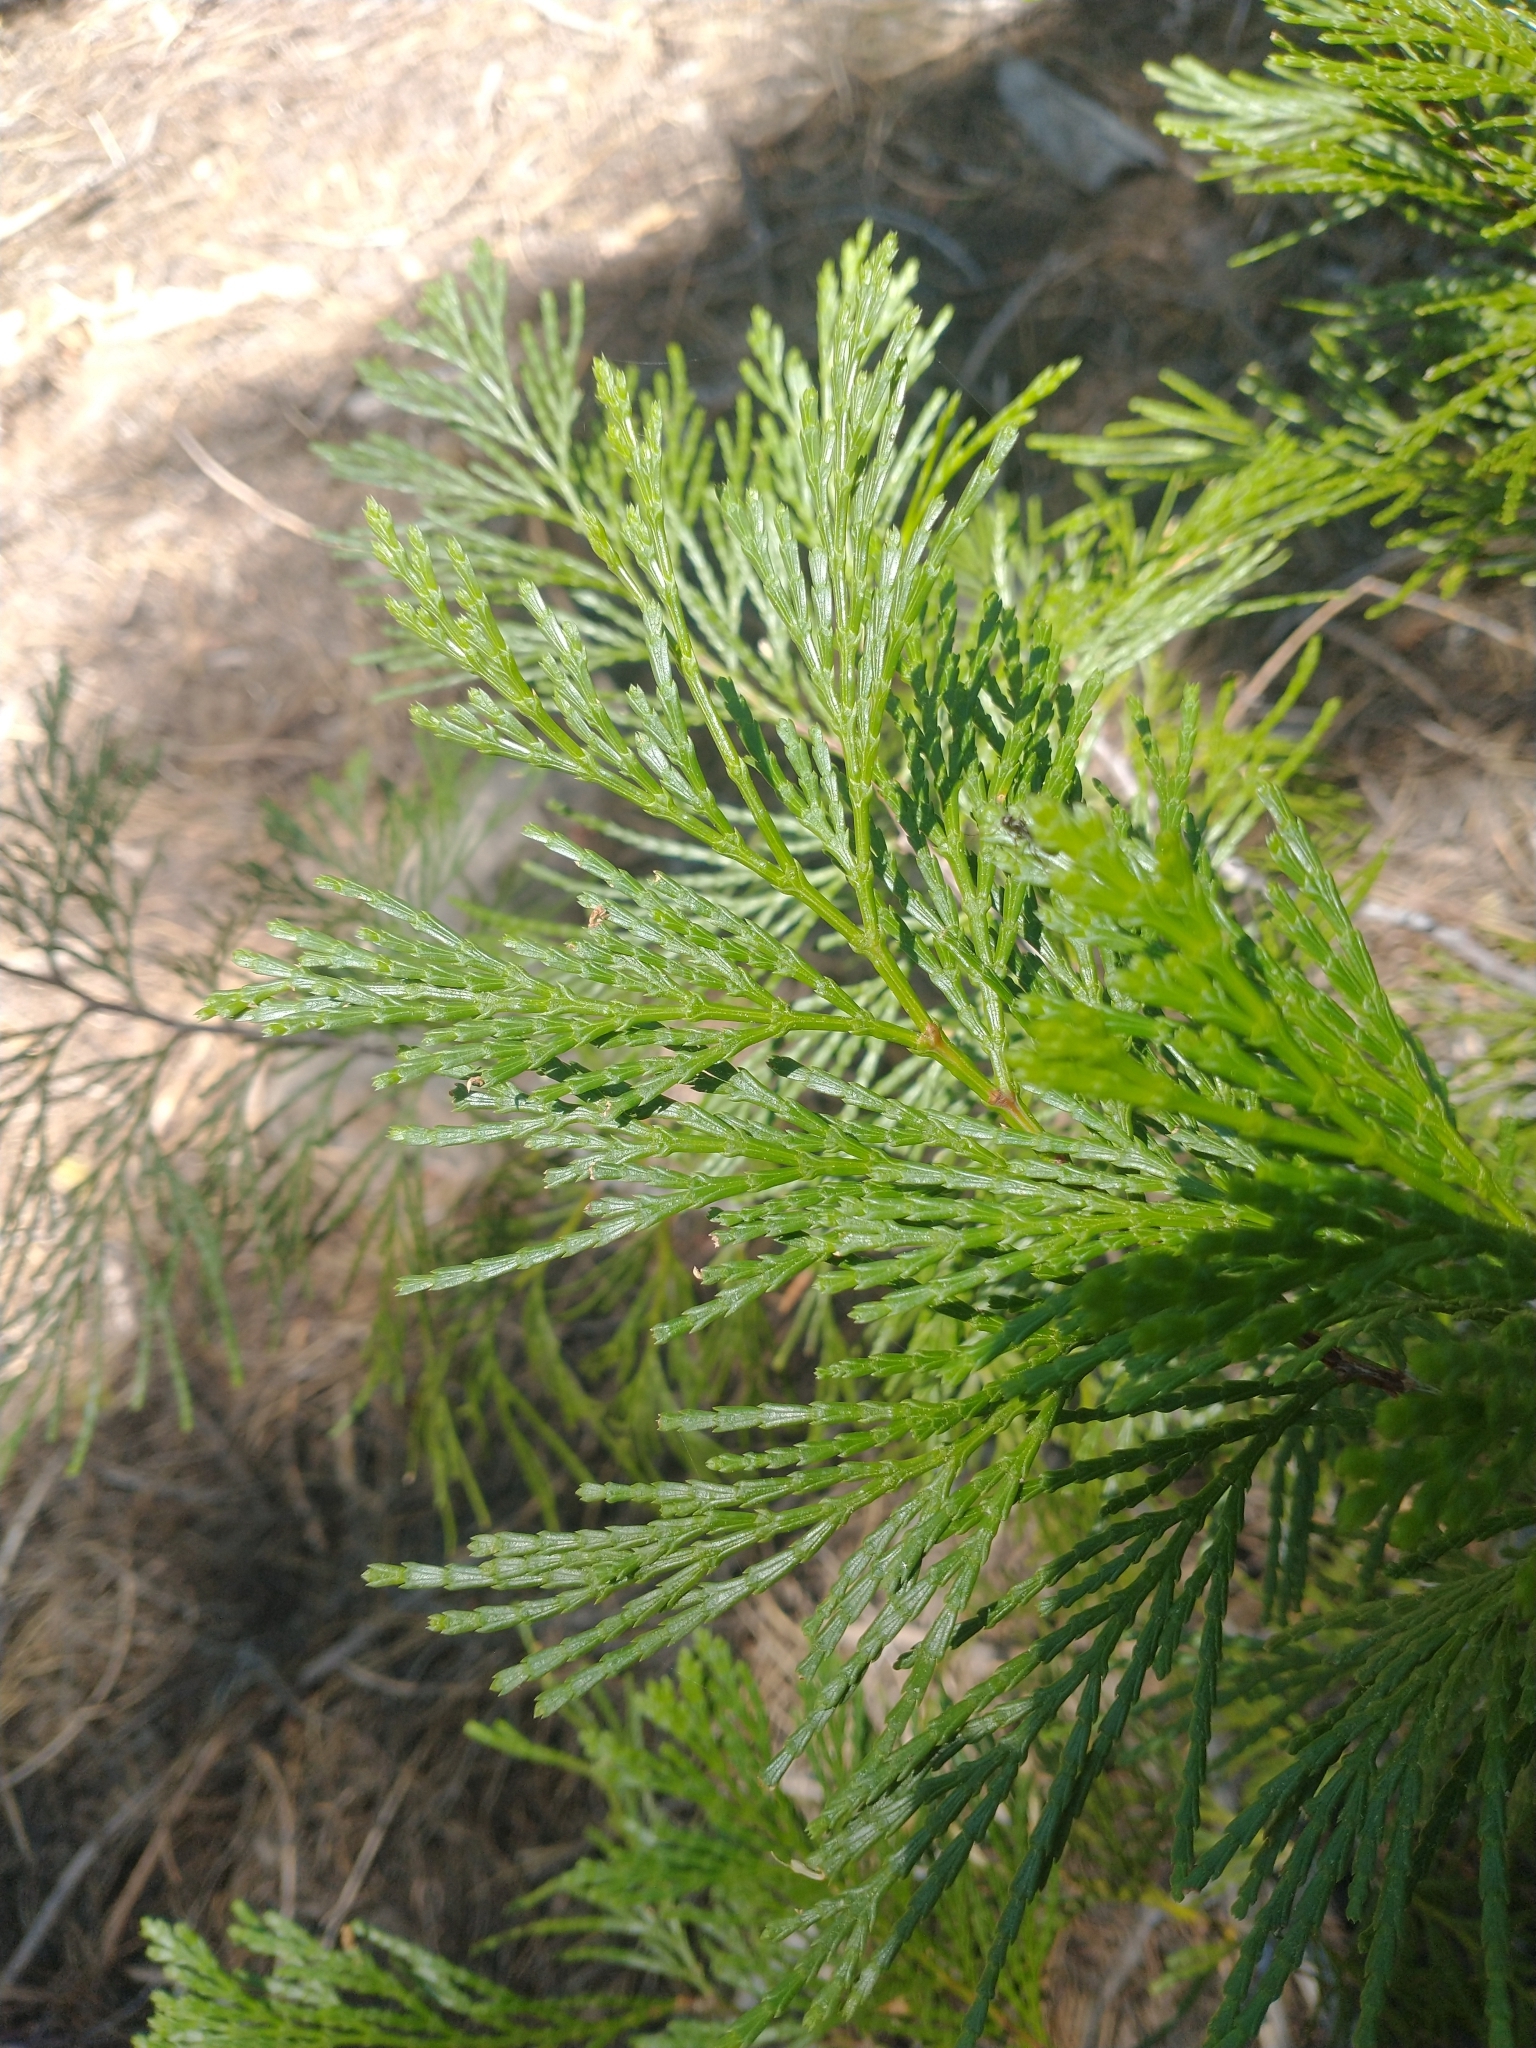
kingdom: Plantae
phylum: Tracheophyta
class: Pinopsida
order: Pinales
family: Cupressaceae
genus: Calocedrus
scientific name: Calocedrus decurrens
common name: Californian incense-cedar
